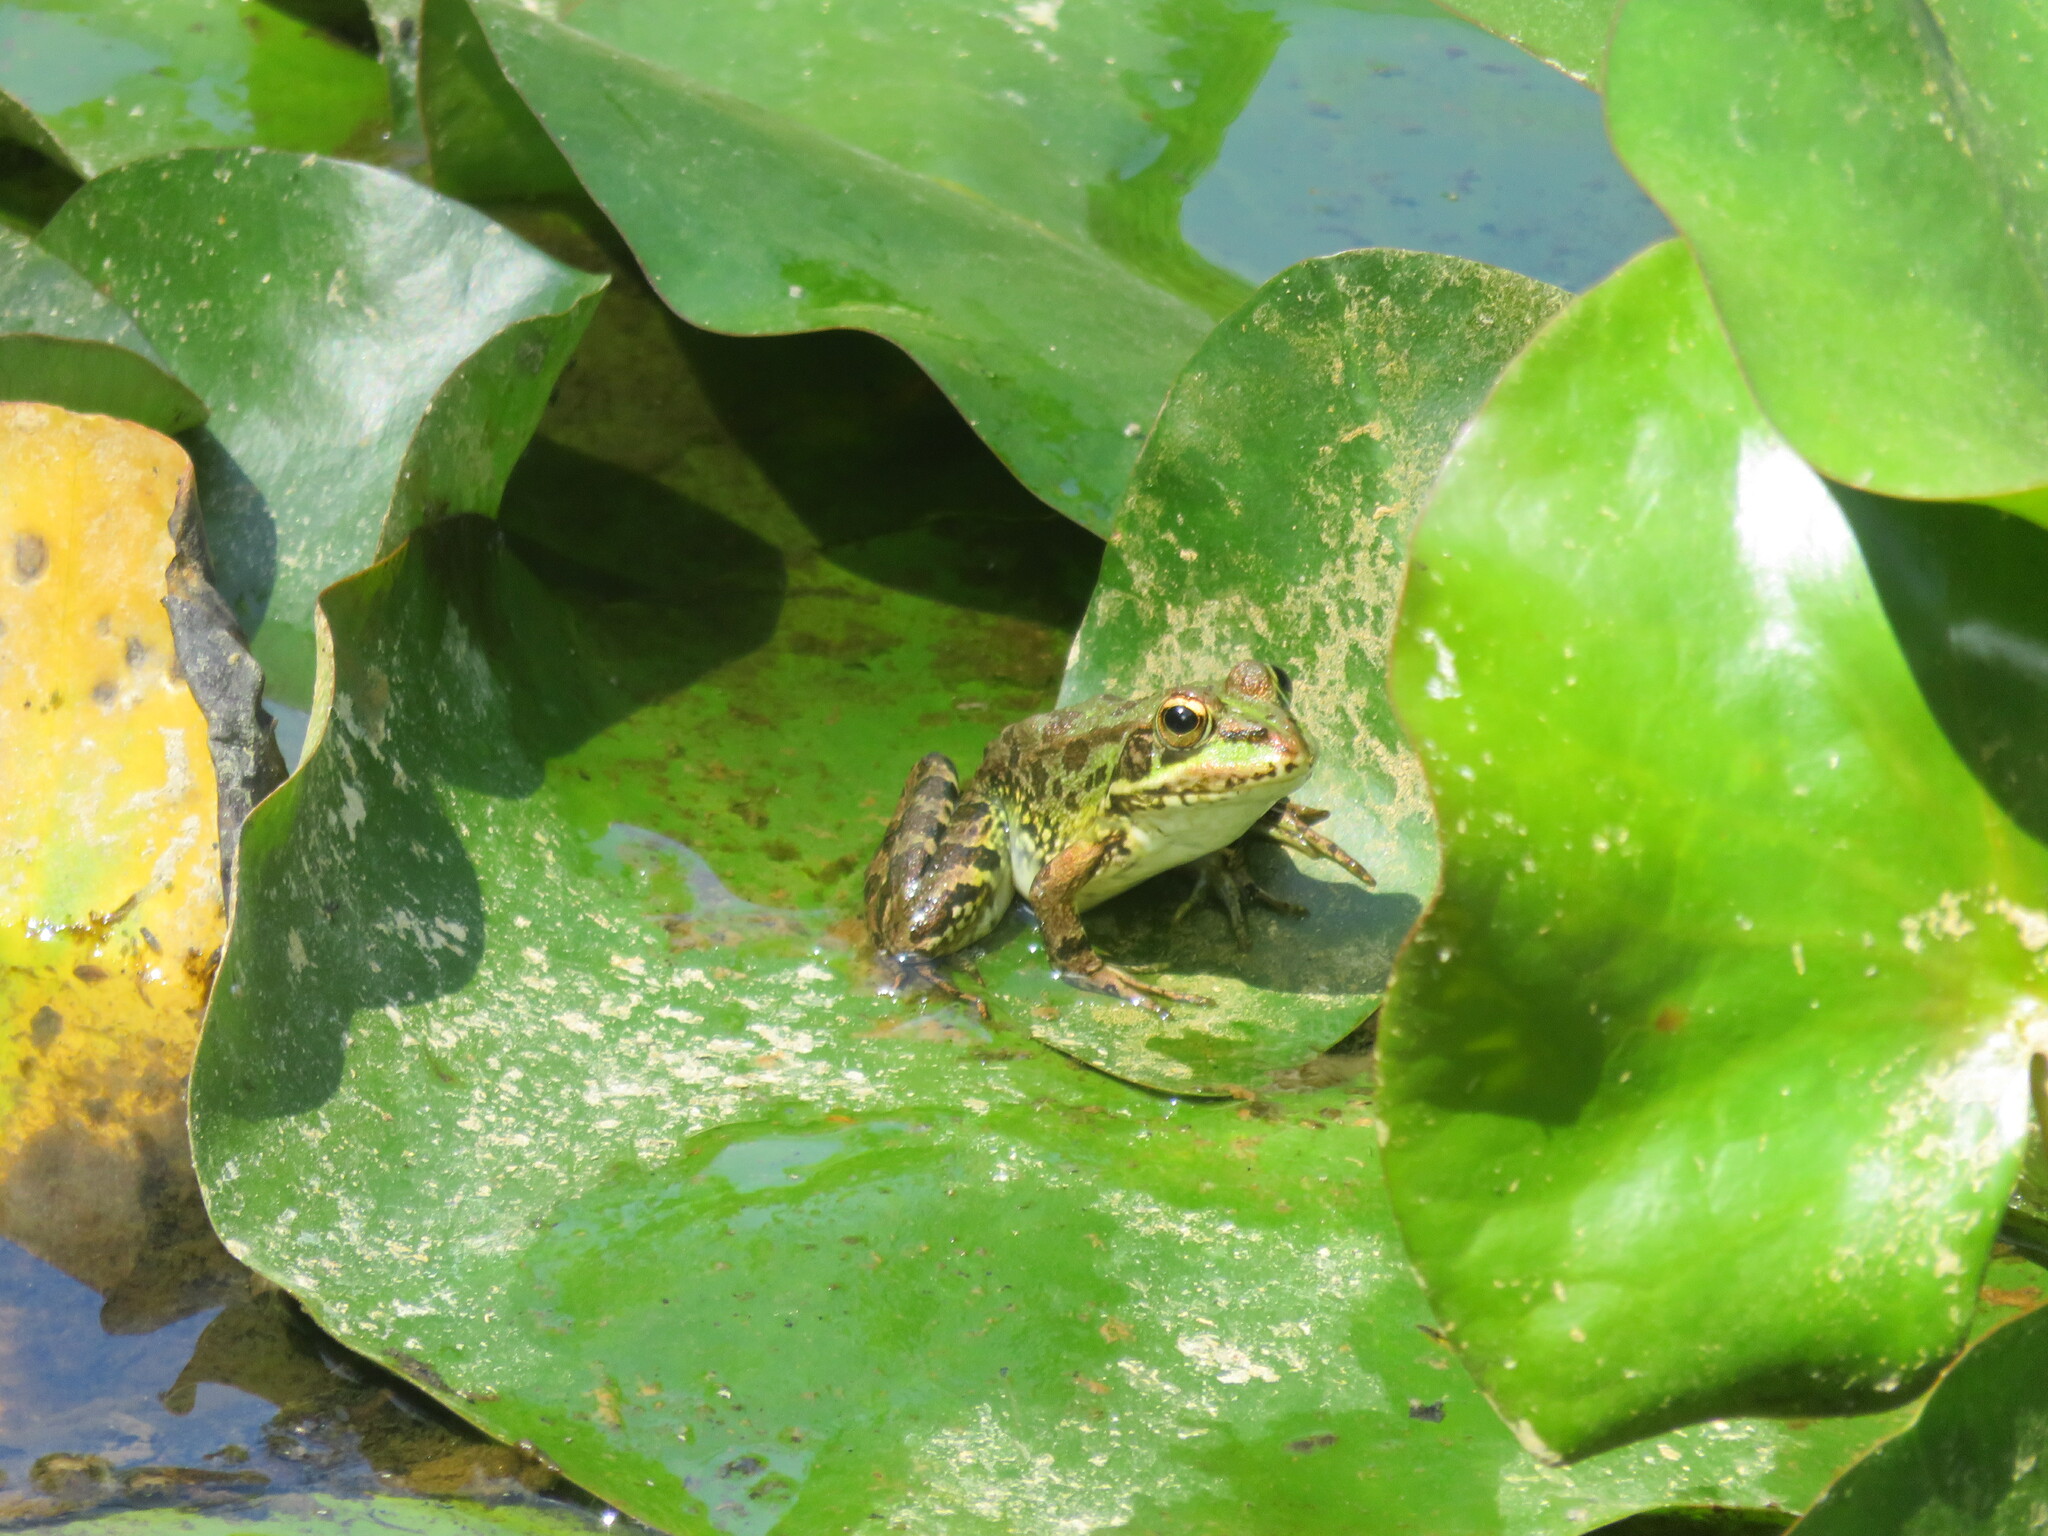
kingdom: Animalia
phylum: Chordata
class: Amphibia
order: Anura
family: Ranidae
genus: Pelophylax
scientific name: Pelophylax perezi
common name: Perez's frog
